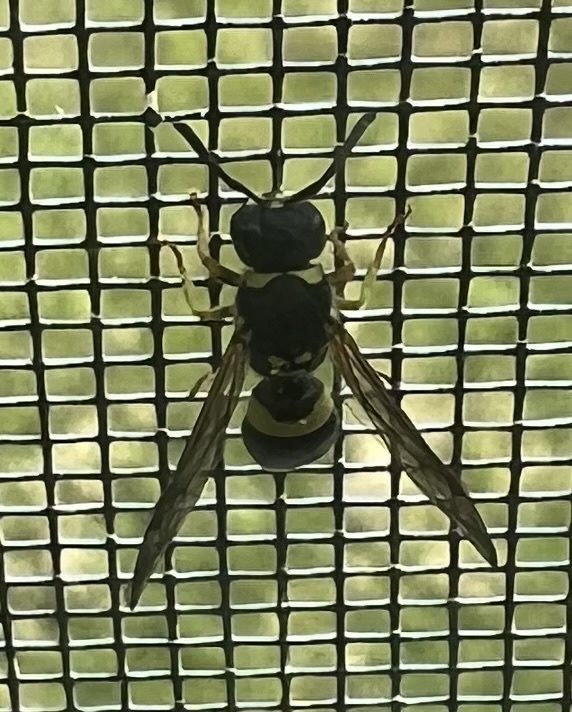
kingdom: Animalia
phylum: Arthropoda
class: Insecta
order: Hymenoptera
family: Vespidae
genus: Ancistrocerus
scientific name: Ancistrocerus gazella
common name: European tube wasp
